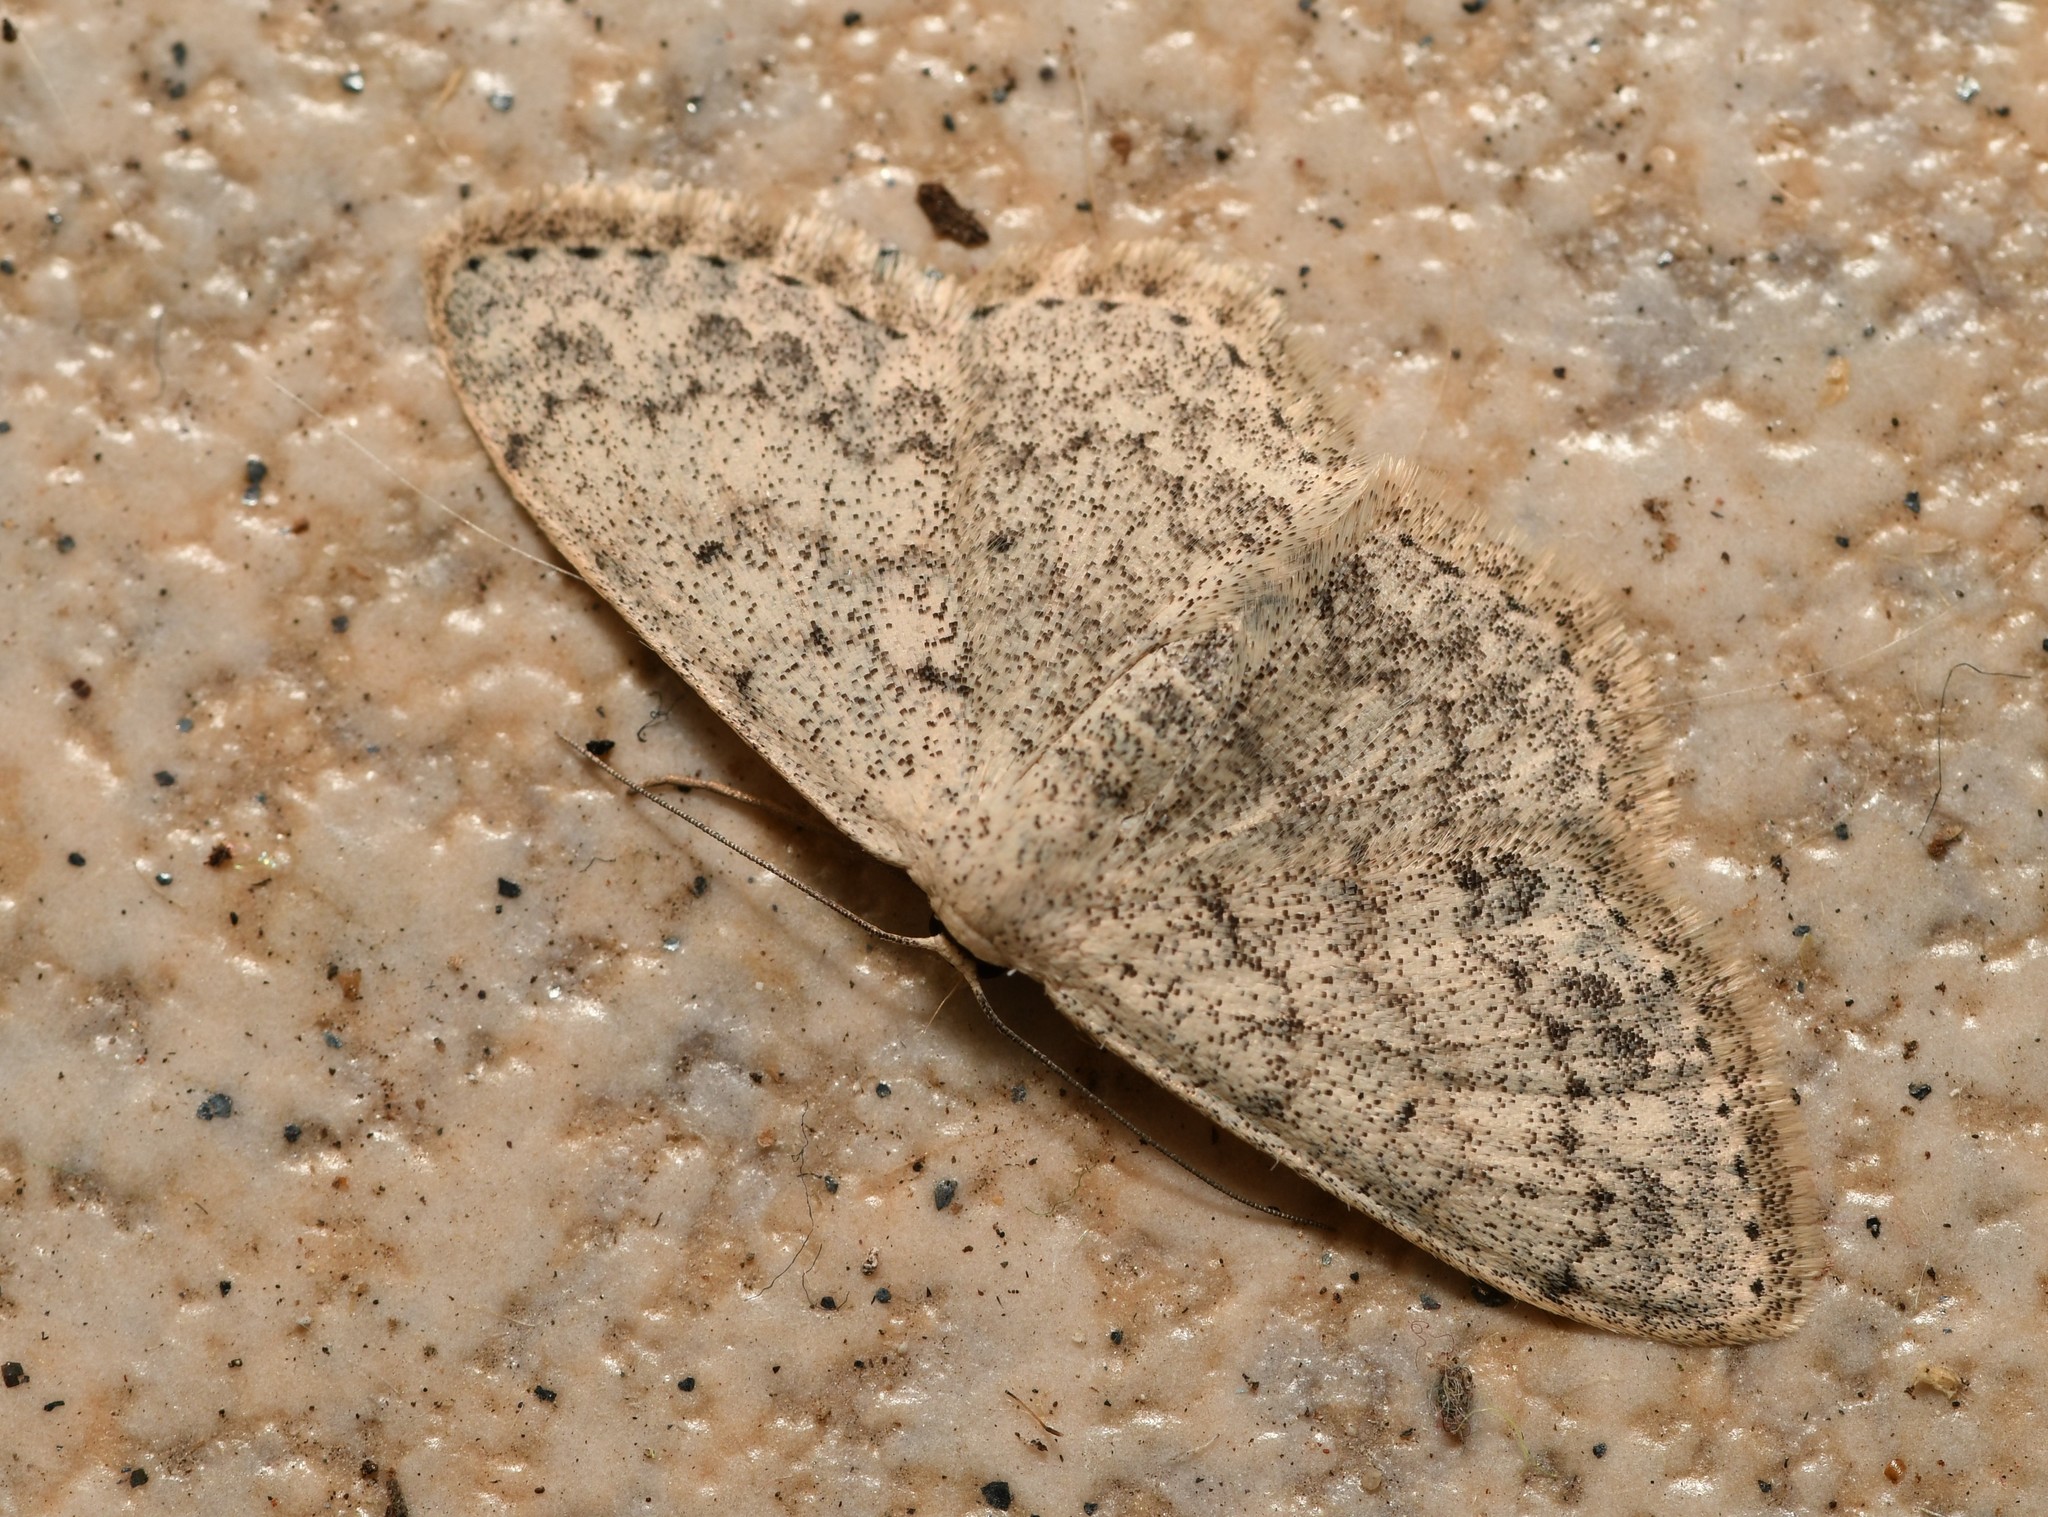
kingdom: Animalia
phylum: Arthropoda
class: Insecta
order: Lepidoptera
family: Geometridae
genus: Scopula
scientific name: Scopula marginepunctata
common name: Mullein wave
